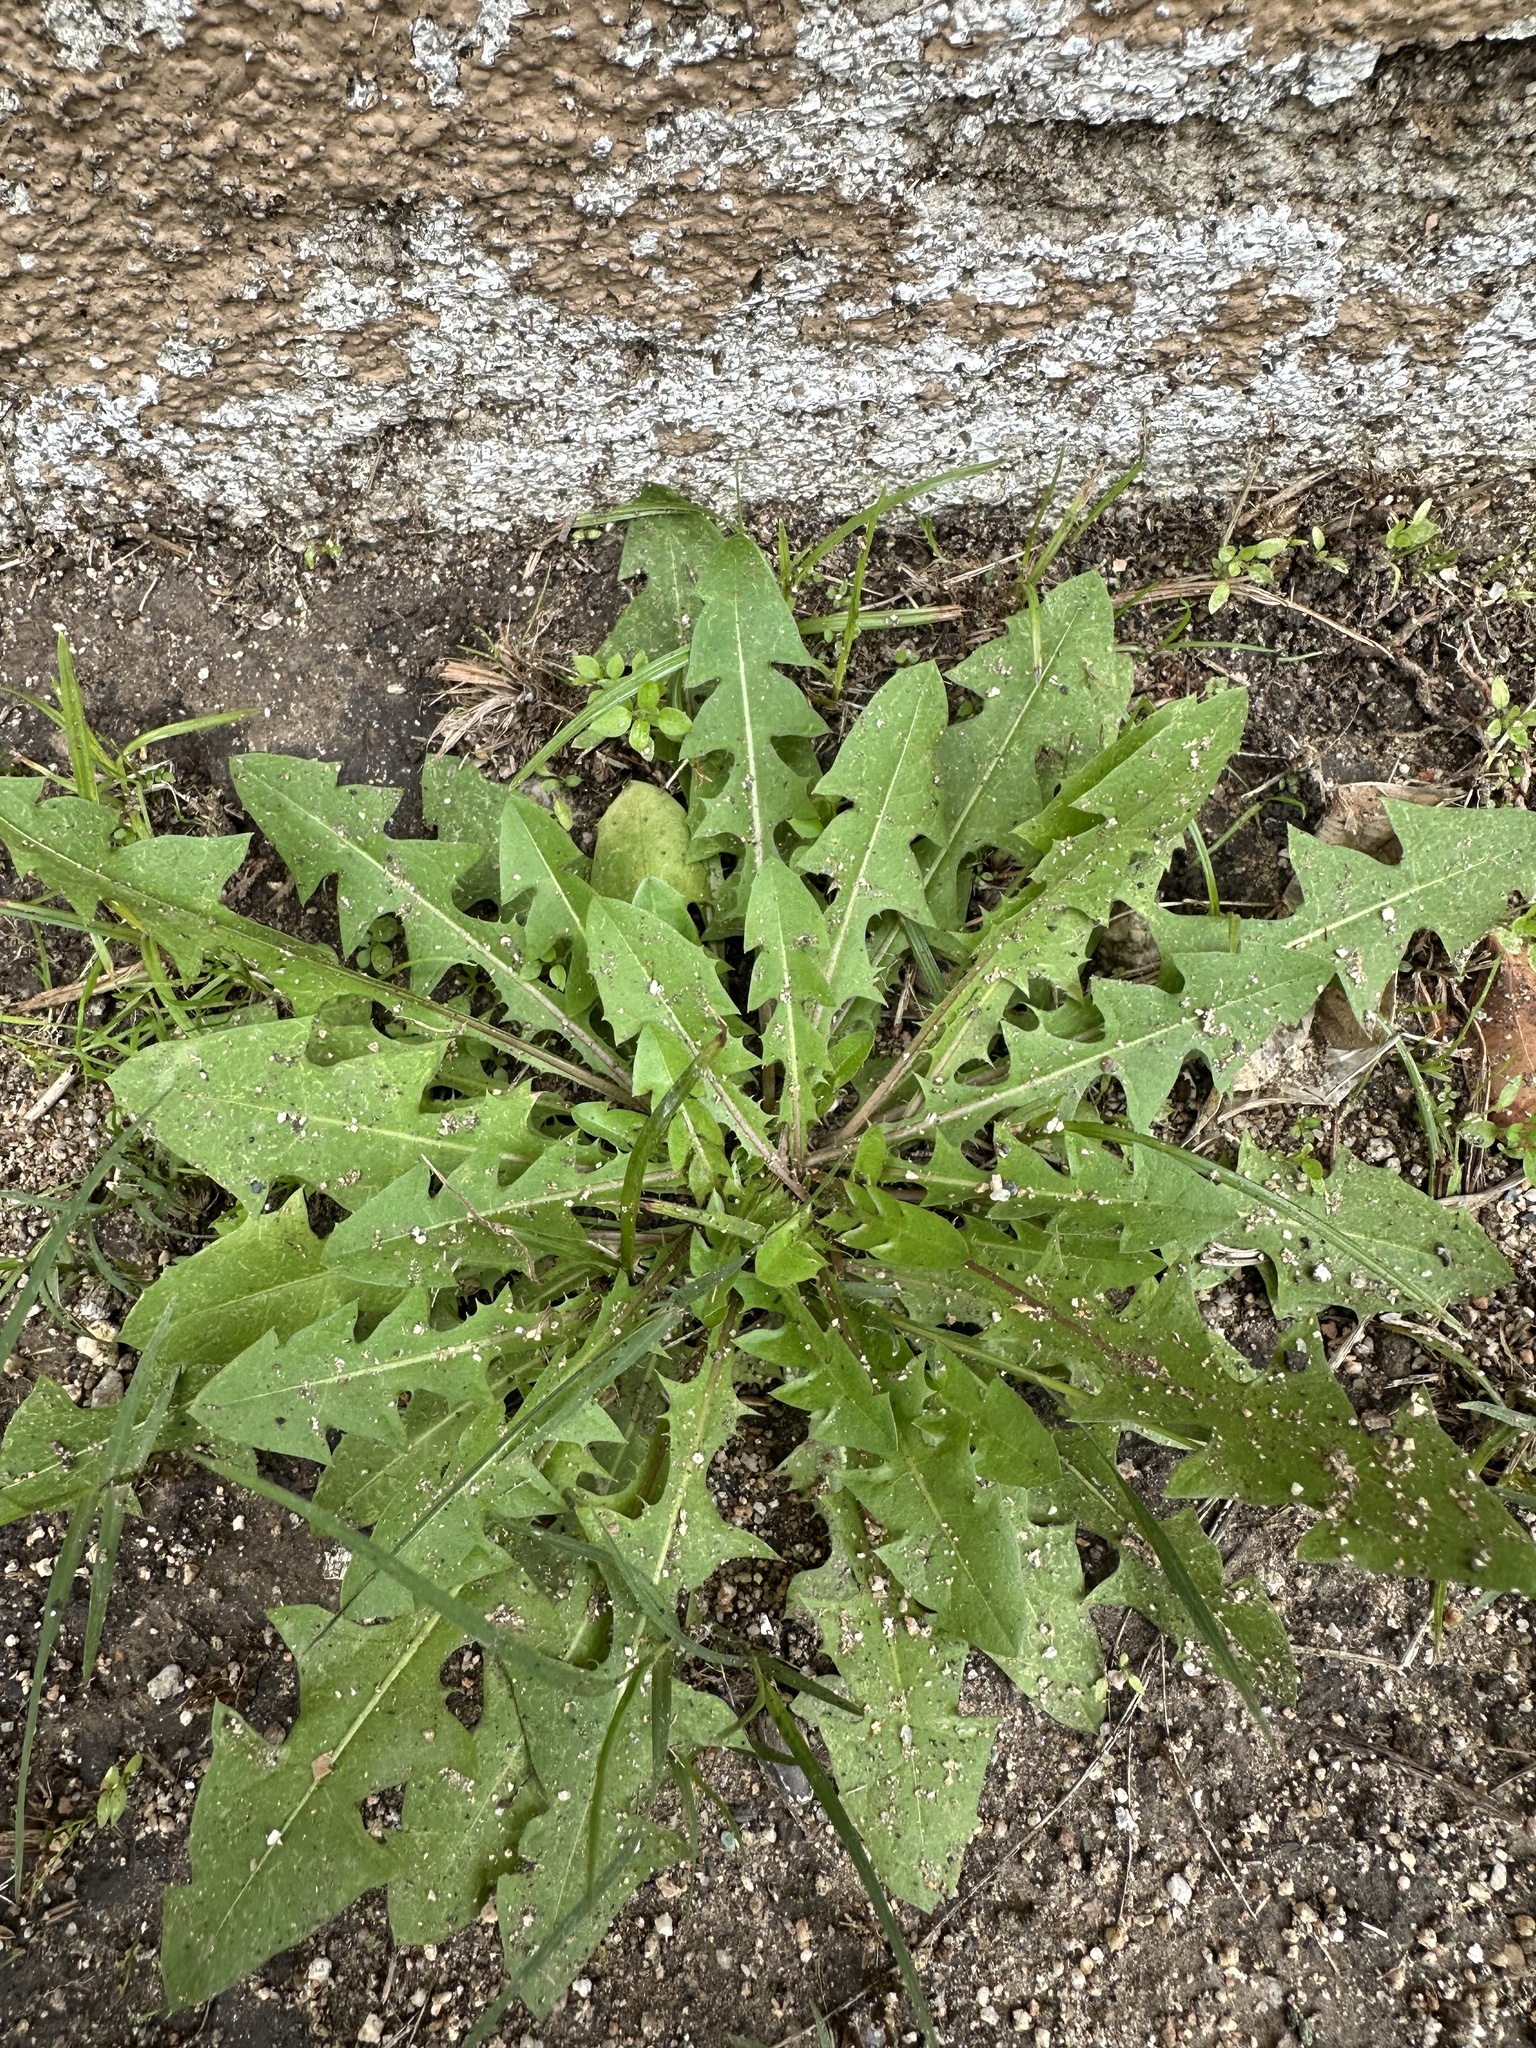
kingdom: Plantae
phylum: Tracheophyta
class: Magnoliopsida
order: Asterales
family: Asteraceae
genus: Taraxacum
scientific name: Taraxacum
